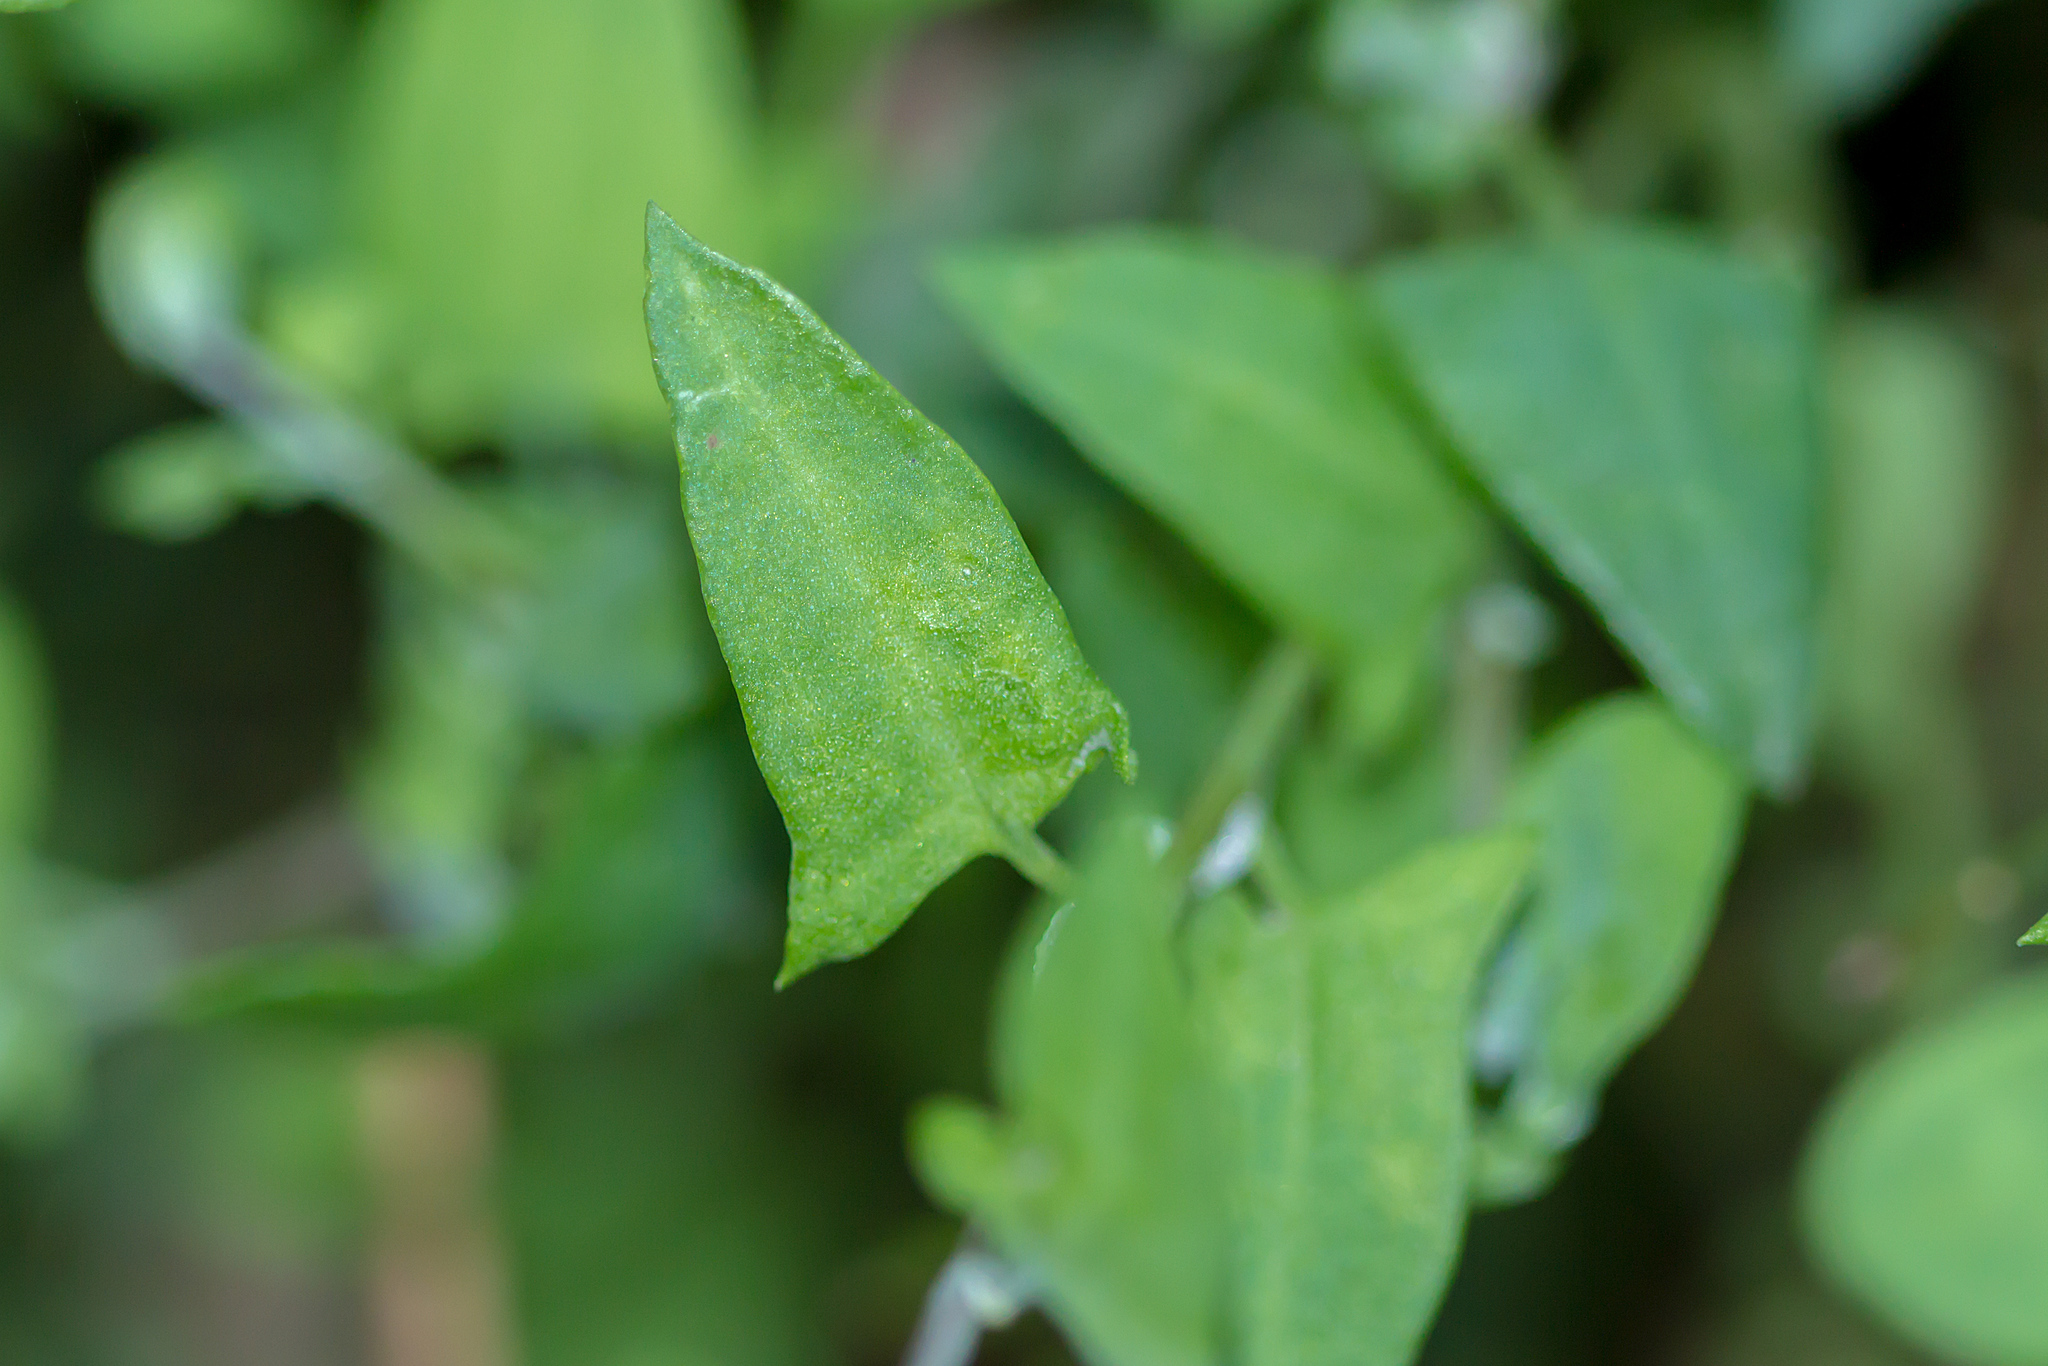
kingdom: Plantae
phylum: Tracheophyta
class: Magnoliopsida
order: Caryophyllales
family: Amaranthaceae
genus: Chenopodium
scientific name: Chenopodium nutans
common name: Climbing-saltbush
